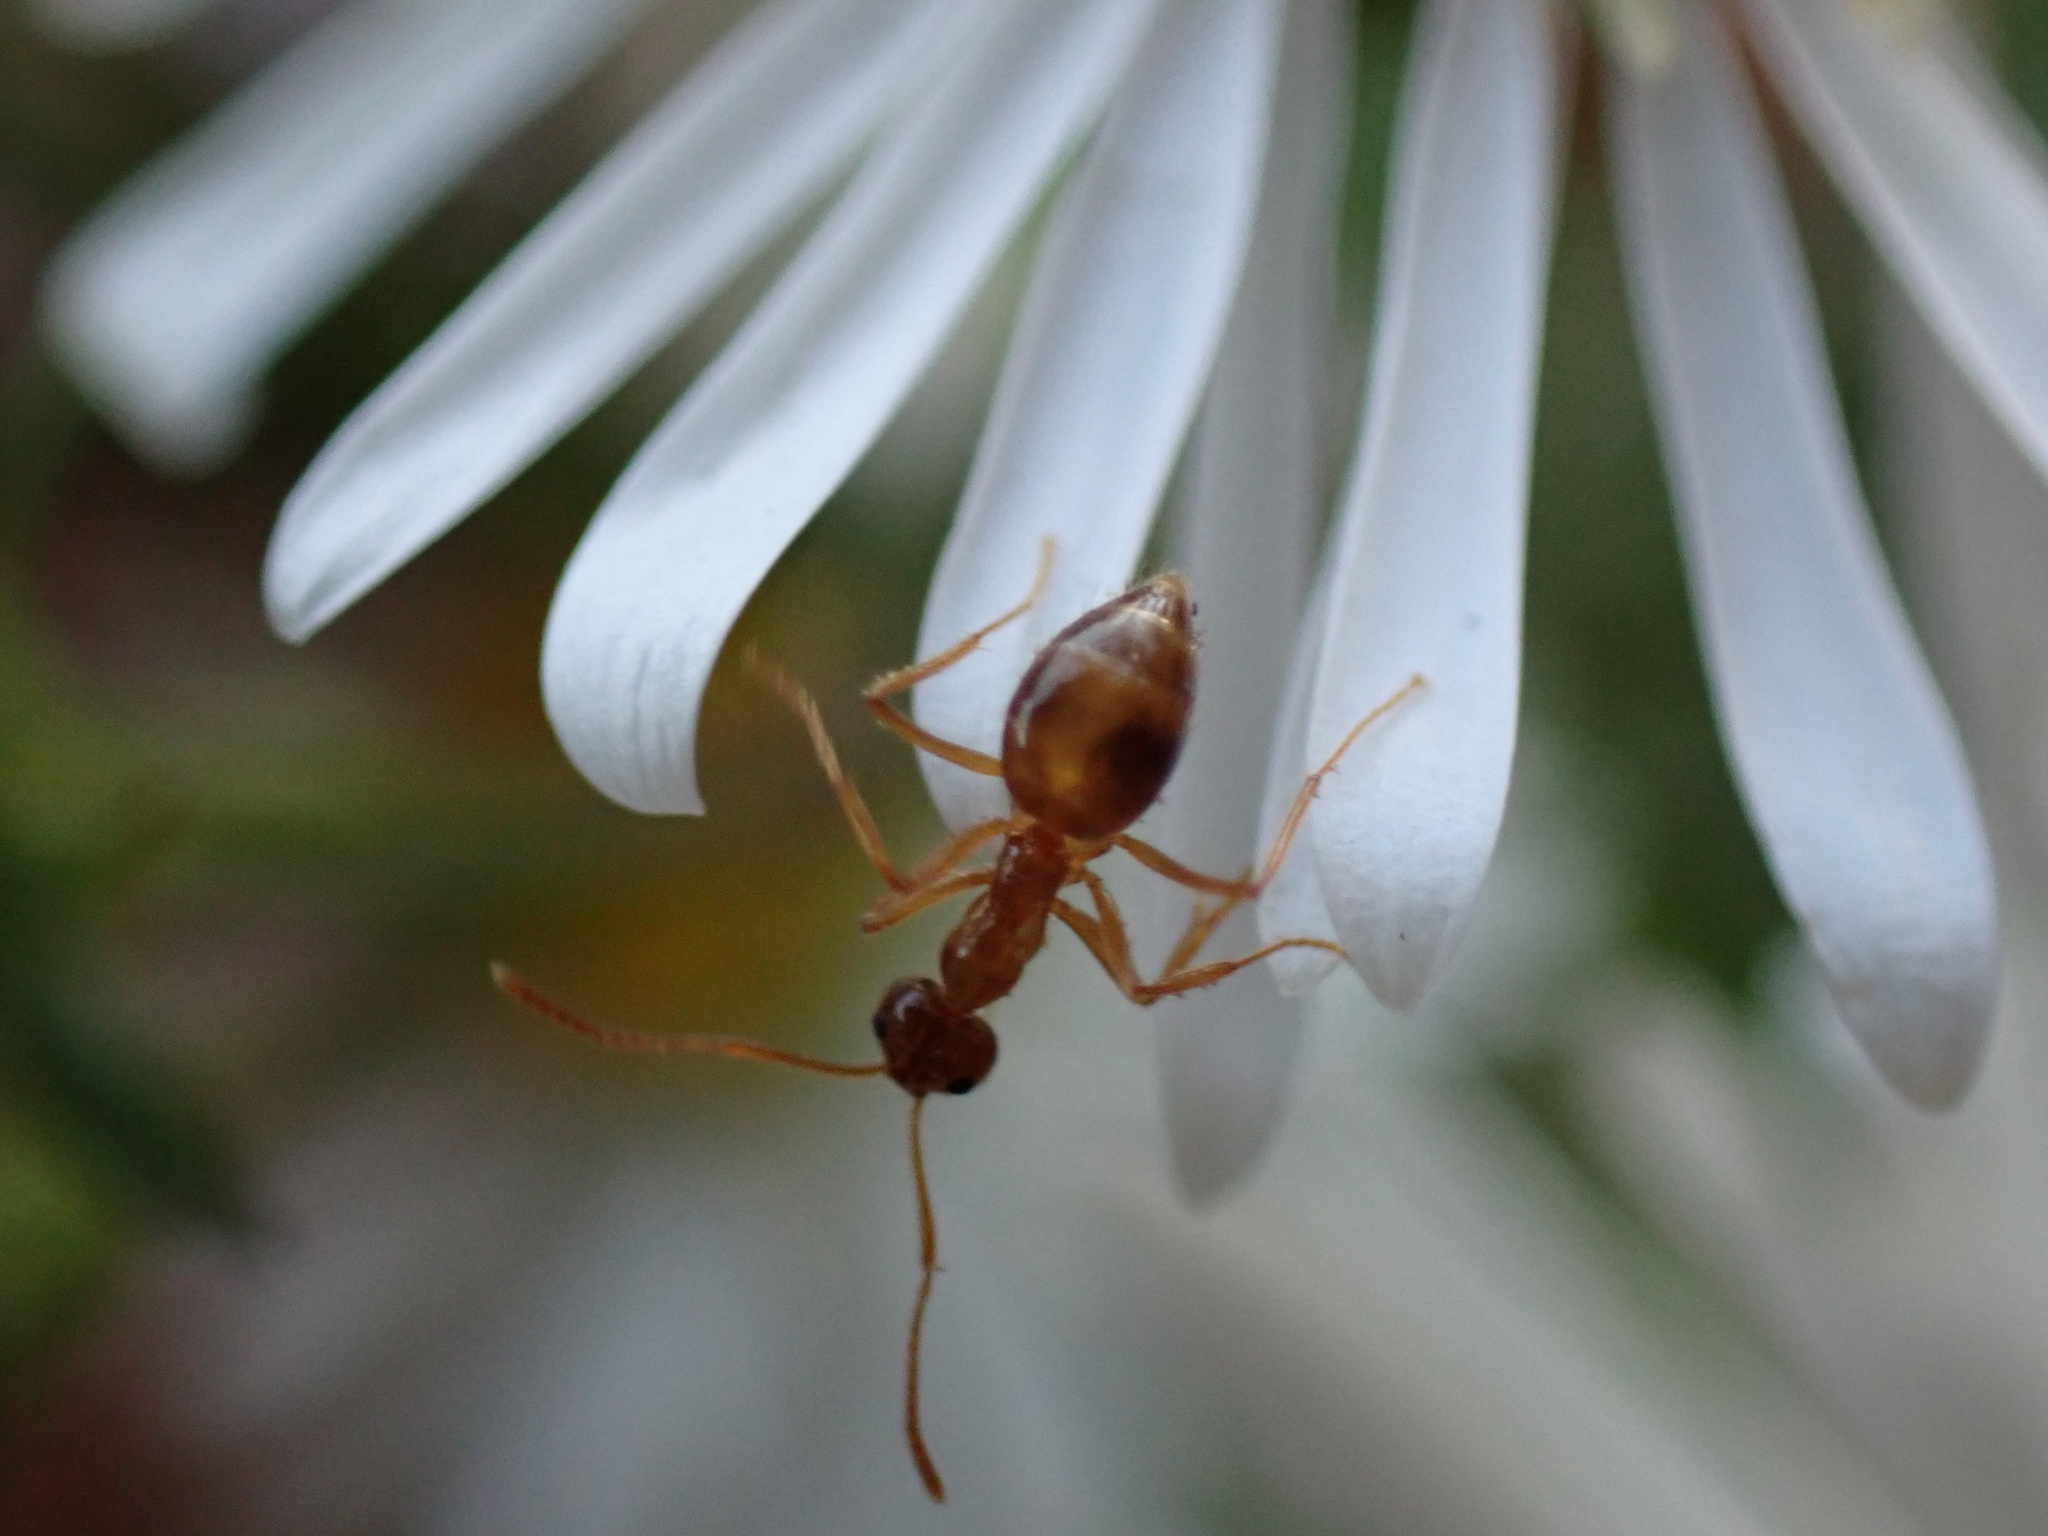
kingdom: Animalia
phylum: Arthropoda
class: Insecta
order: Hymenoptera
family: Formicidae
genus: Prenolepis
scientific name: Prenolepis imparis
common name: Small honey ant
